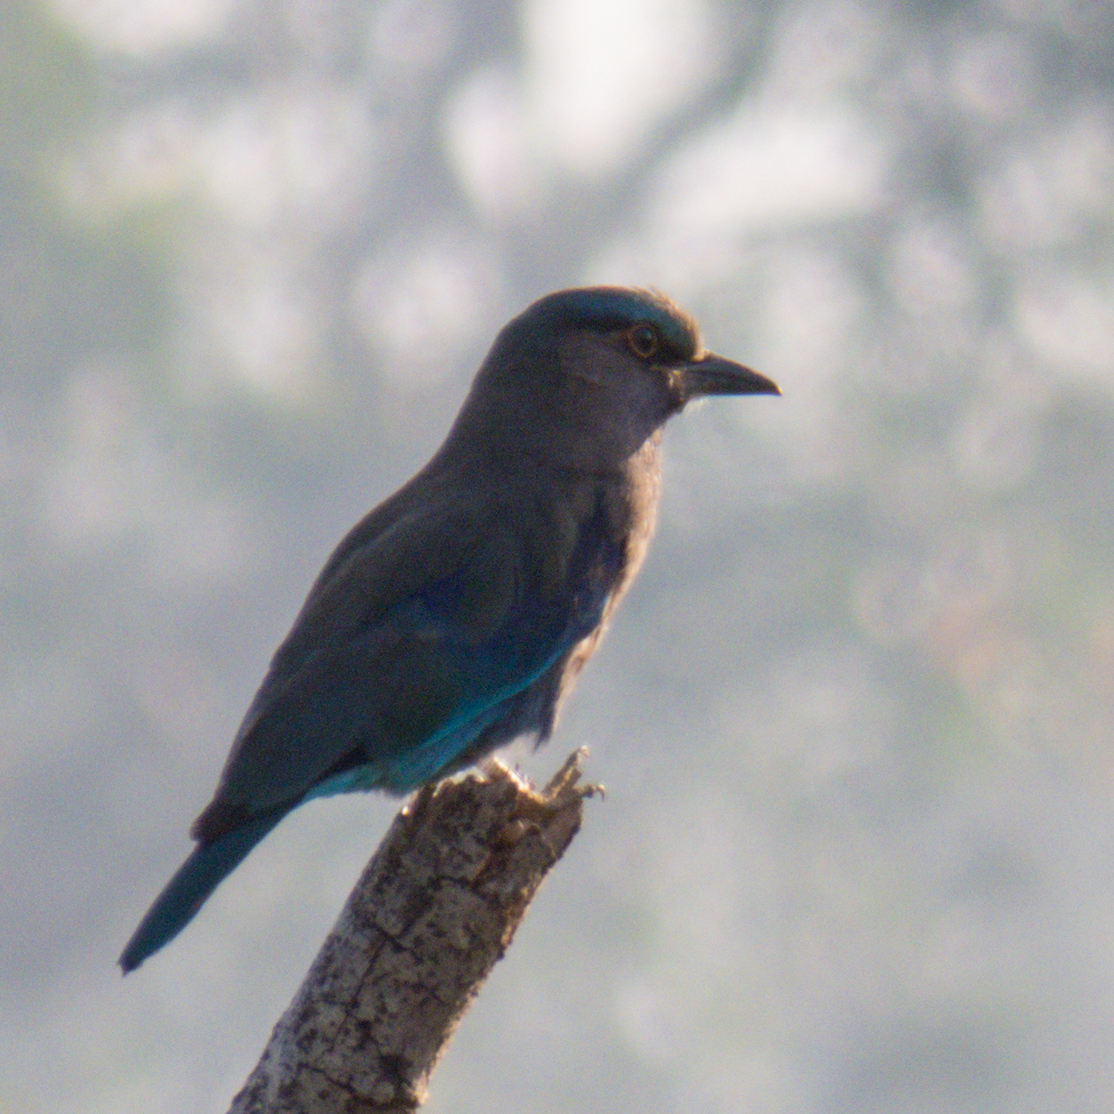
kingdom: Animalia
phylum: Chordata
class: Aves
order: Coraciiformes
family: Coraciidae
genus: Coracias
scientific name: Coracias affinis
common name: Indochinese roller
